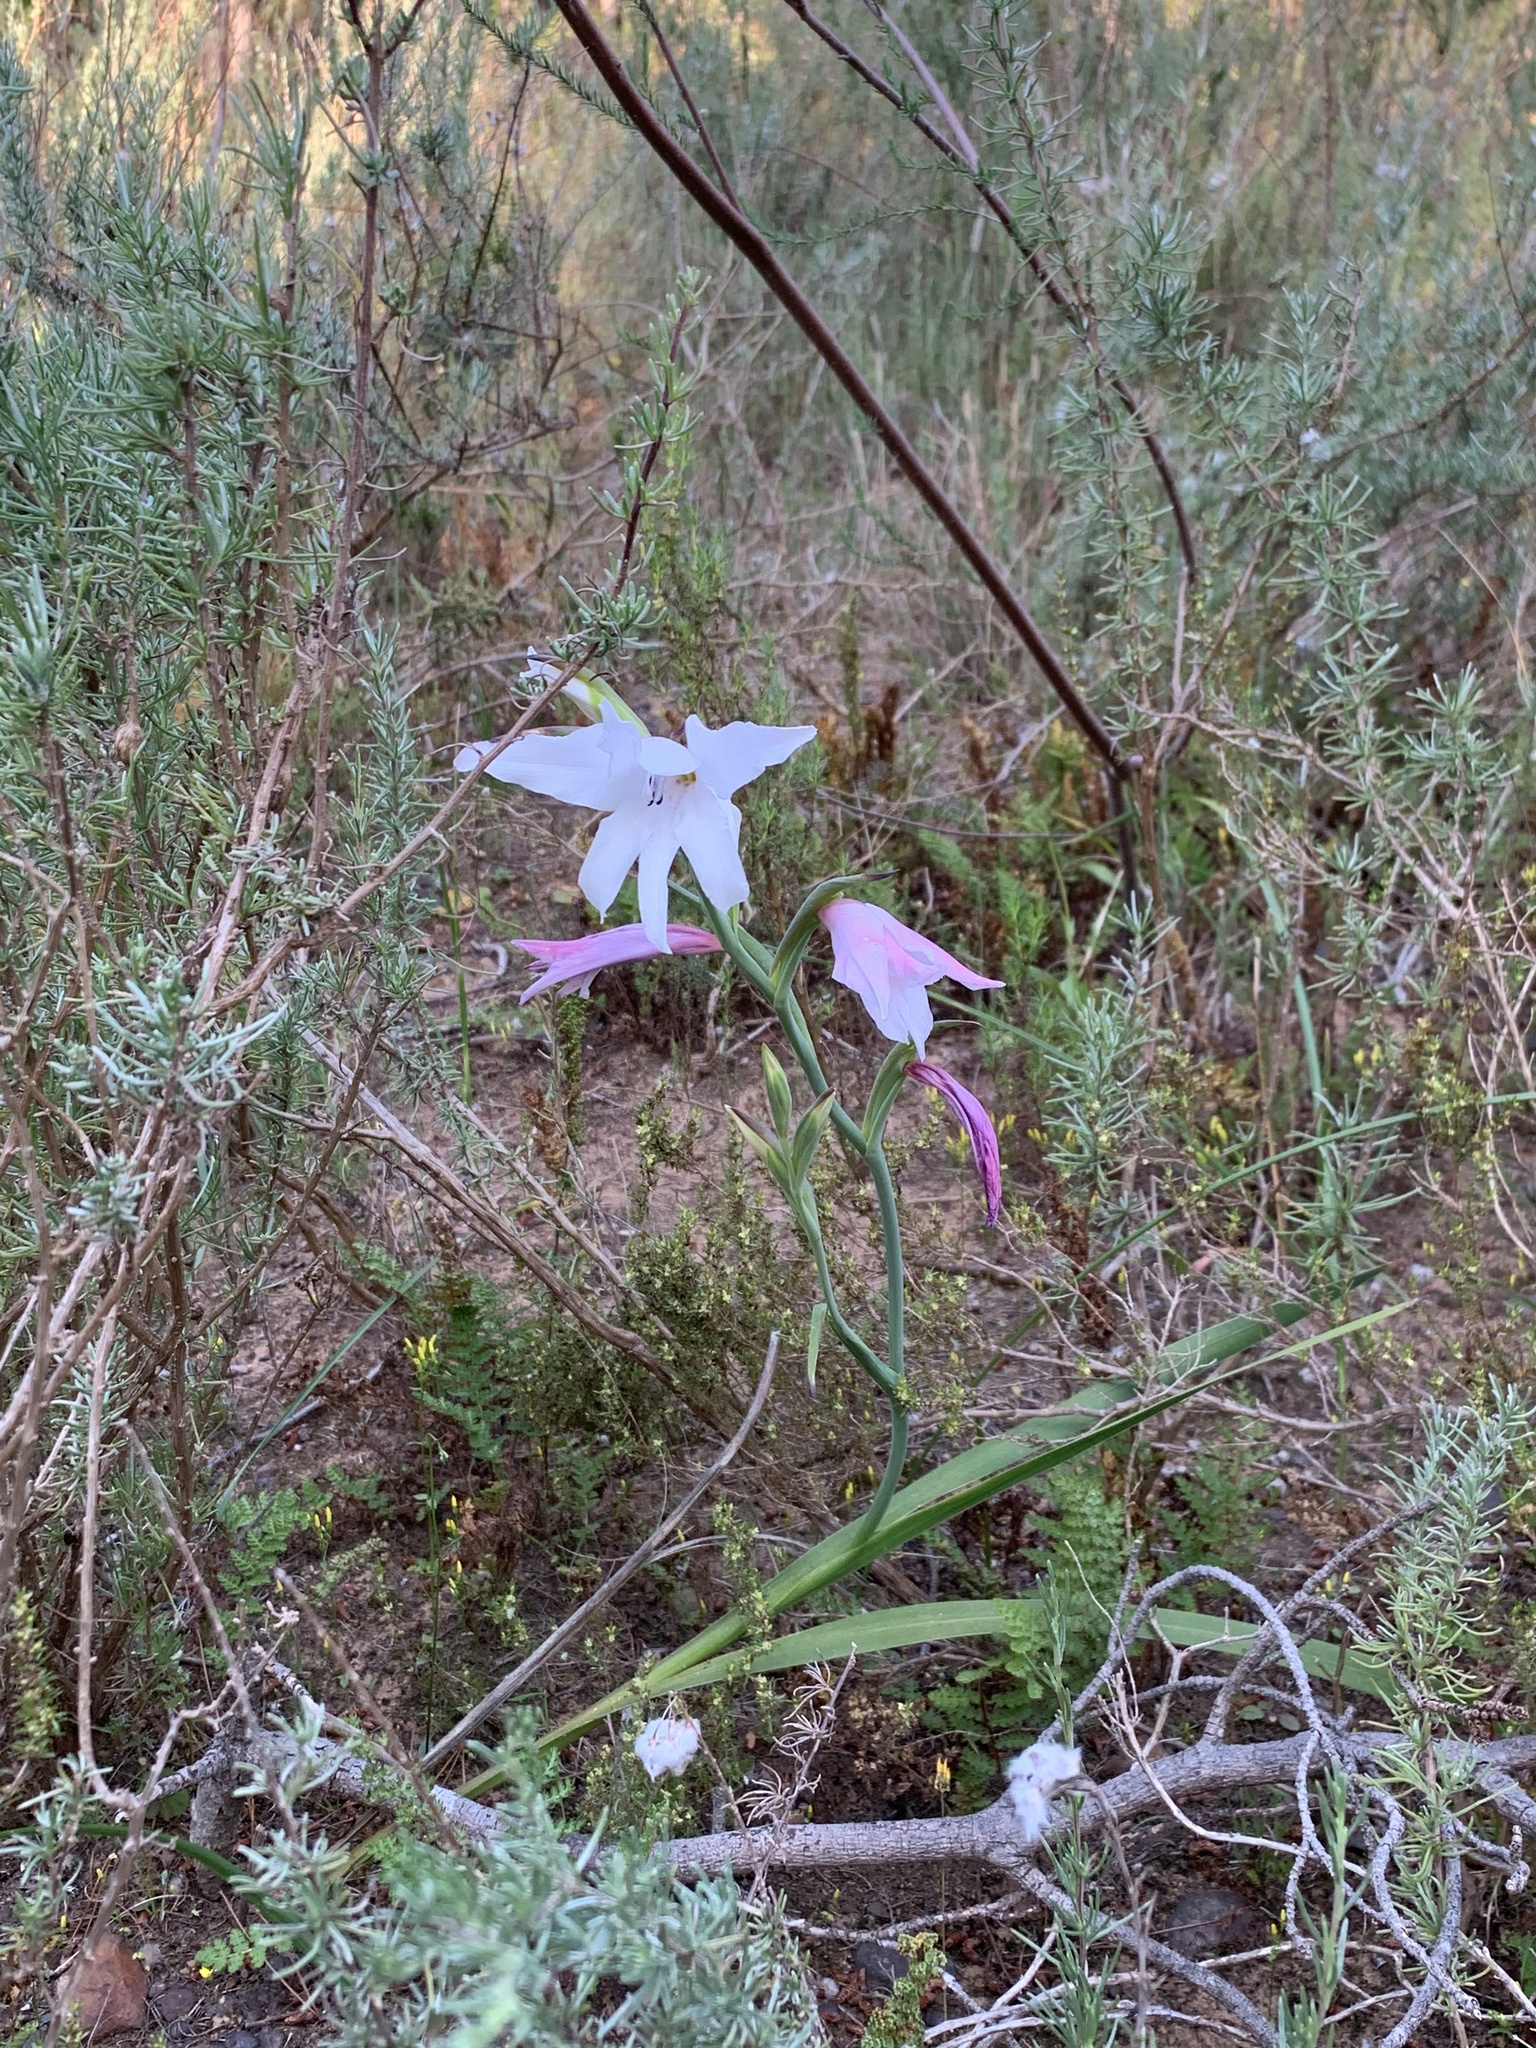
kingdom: Plantae
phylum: Tracheophyta
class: Liliopsida
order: Asparagales
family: Iridaceae
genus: Gladiolus
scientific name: Gladiolus carneus
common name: Painted-lady
